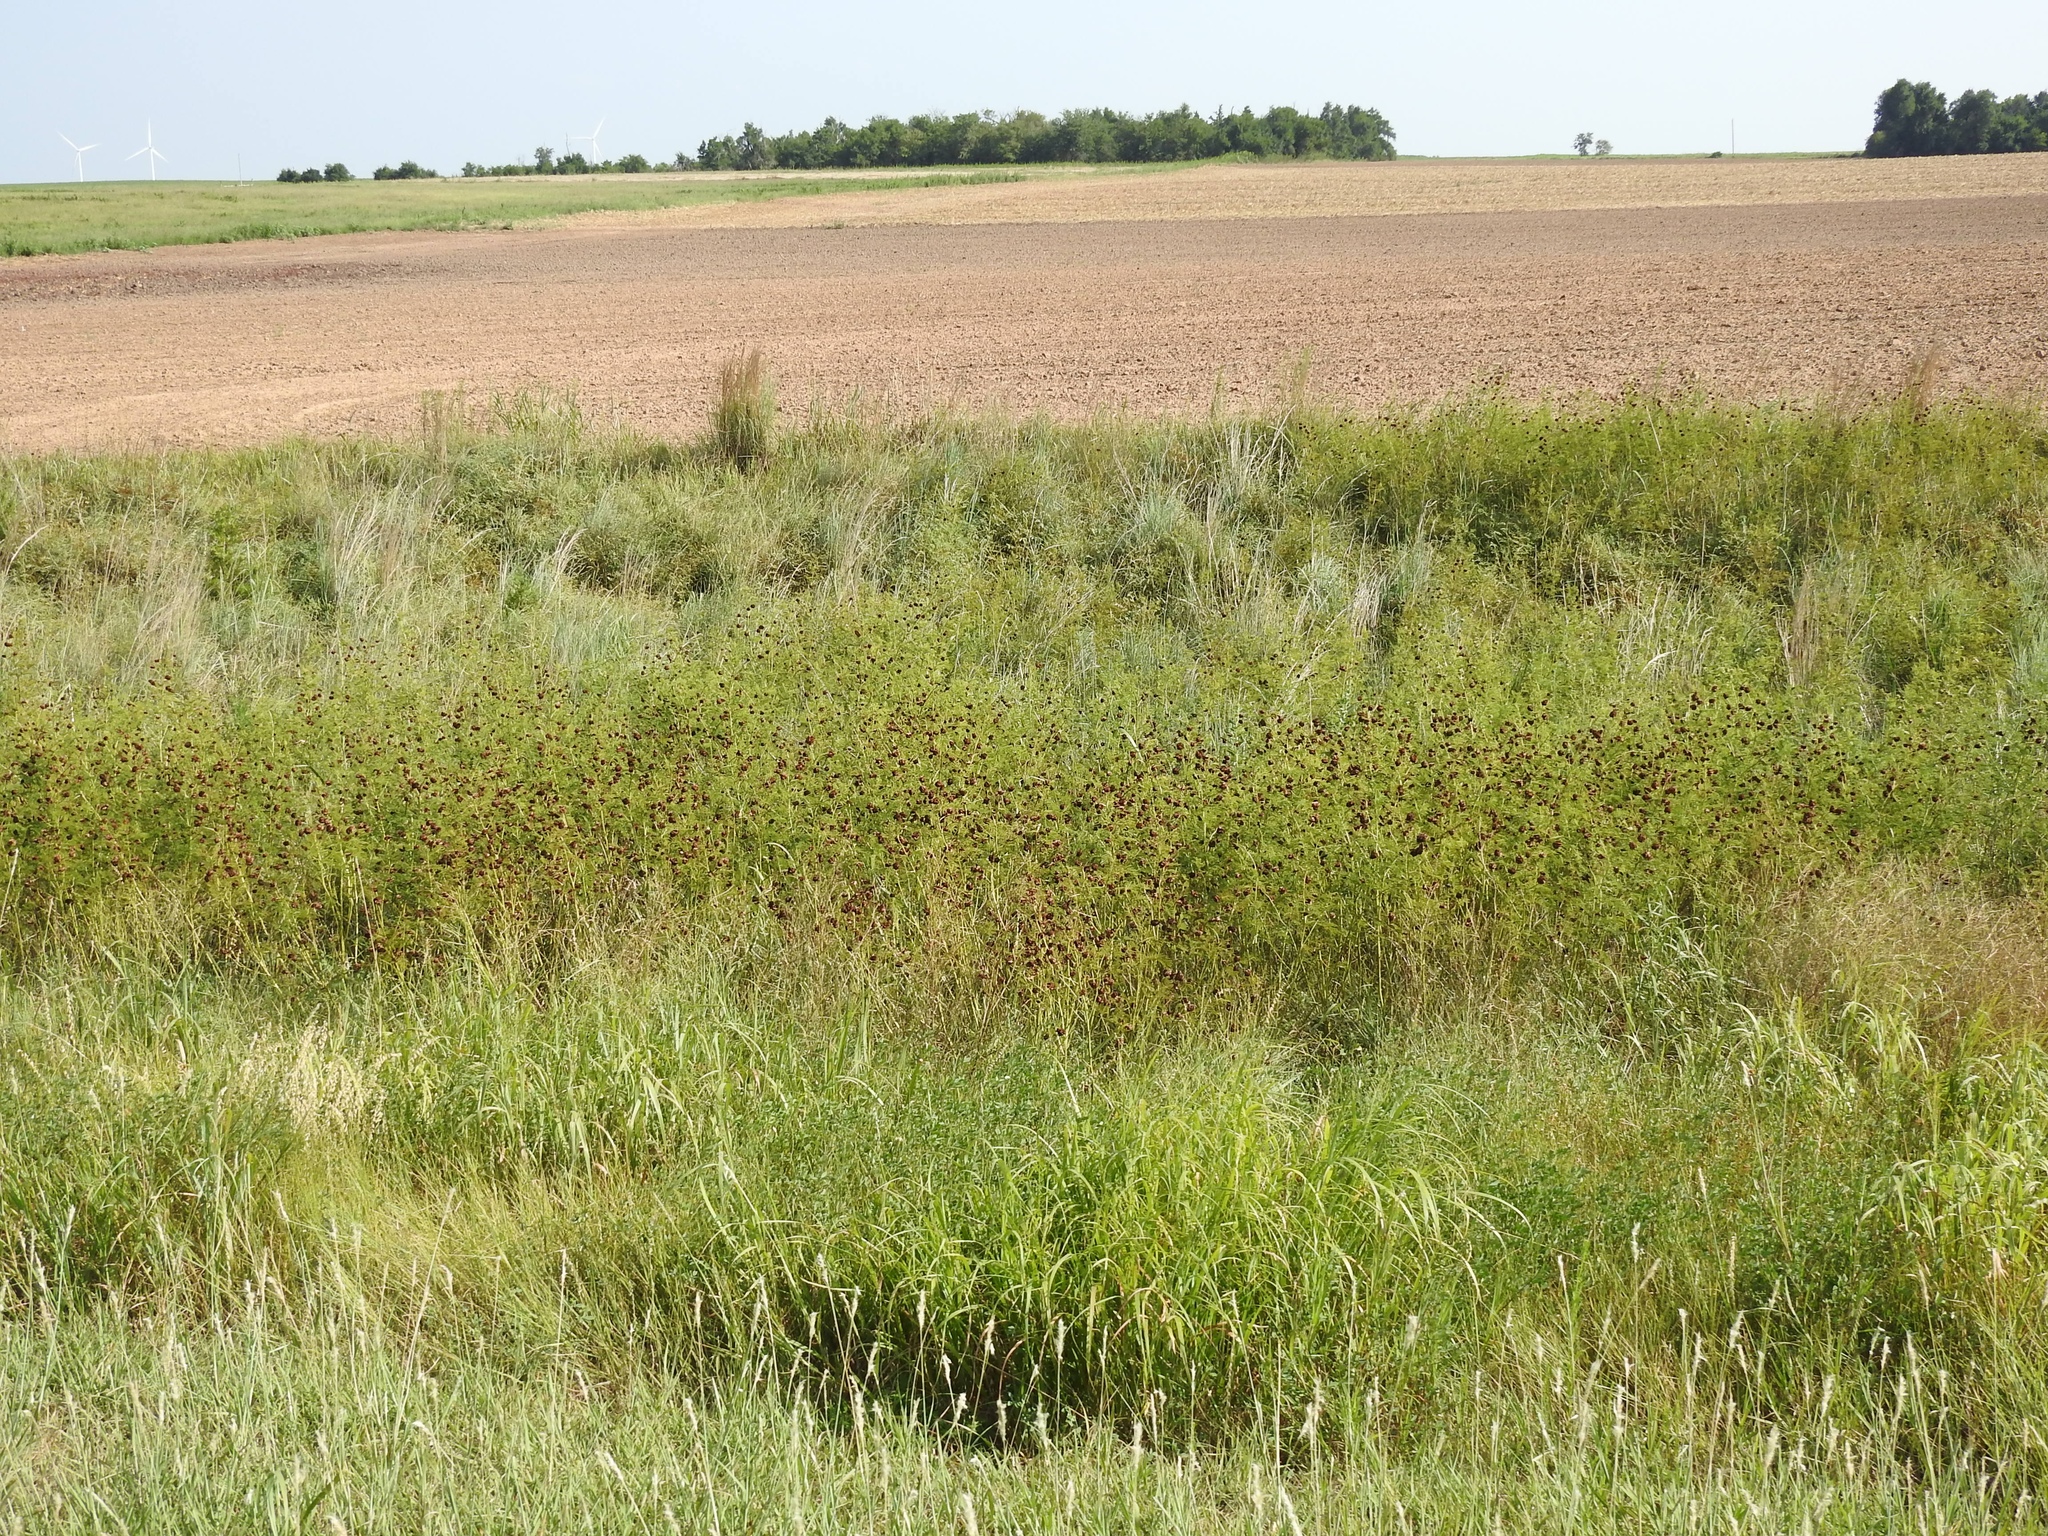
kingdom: Plantae
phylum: Tracheophyta
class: Magnoliopsida
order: Fabales
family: Fabaceae
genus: Desmanthus
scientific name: Desmanthus illinoensis
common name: Illinois bundle-flower
